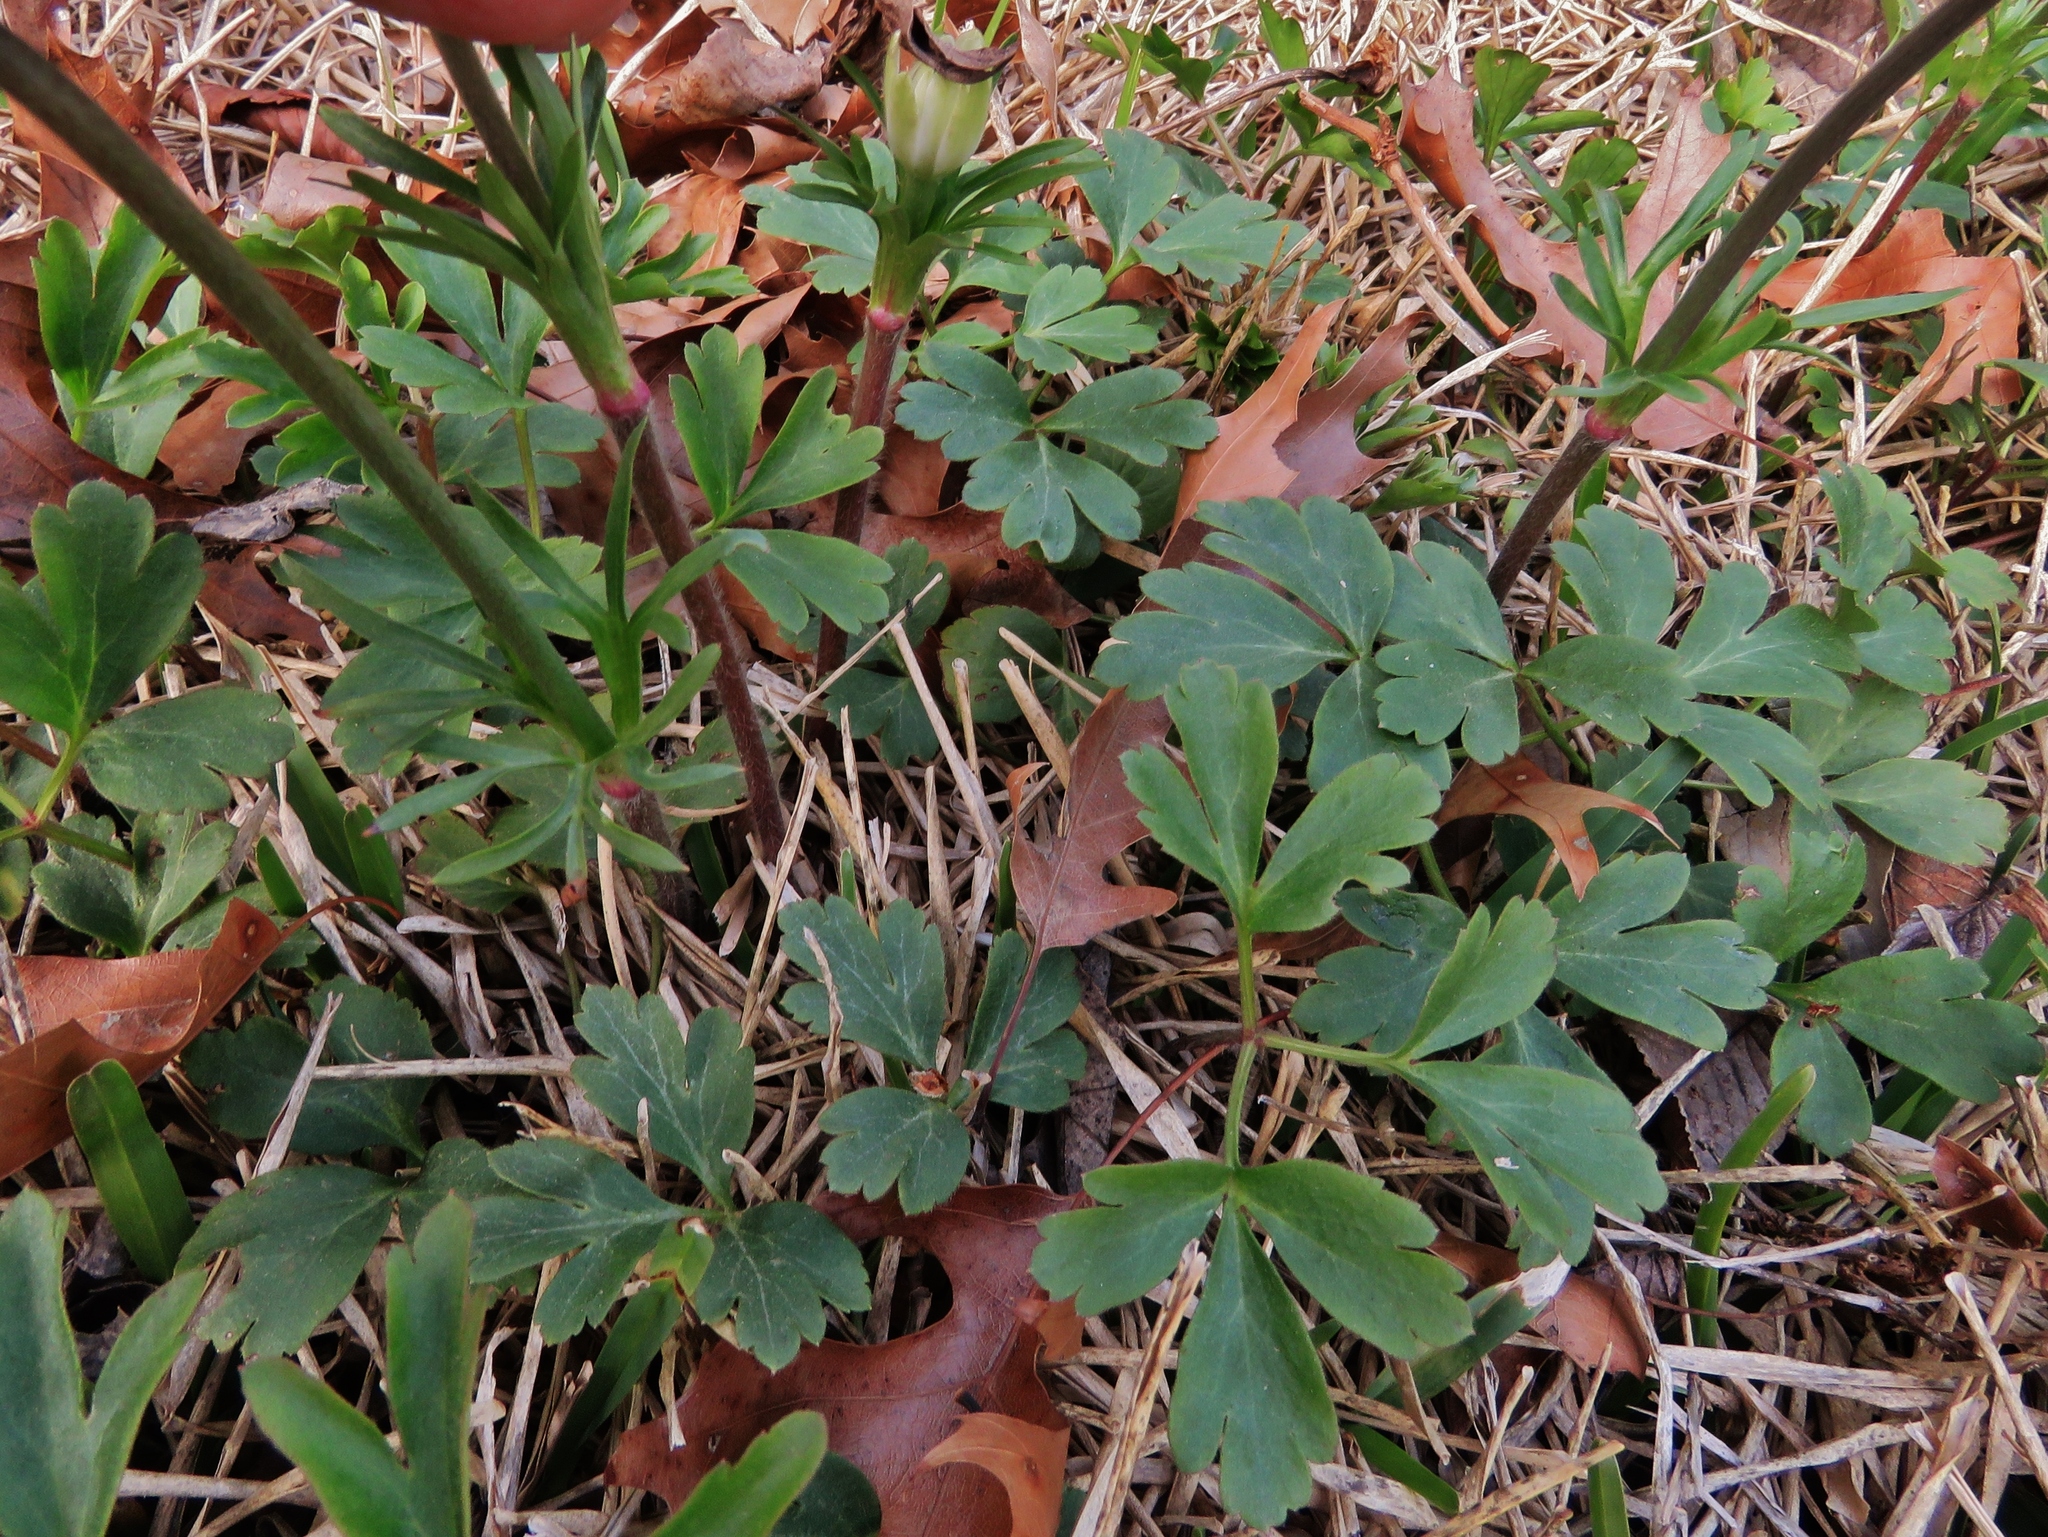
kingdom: Plantae
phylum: Tracheophyta
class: Magnoliopsida
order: Ranunculales
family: Ranunculaceae
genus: Anemone
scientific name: Anemone berlandieri
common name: Ten-petal anemone
